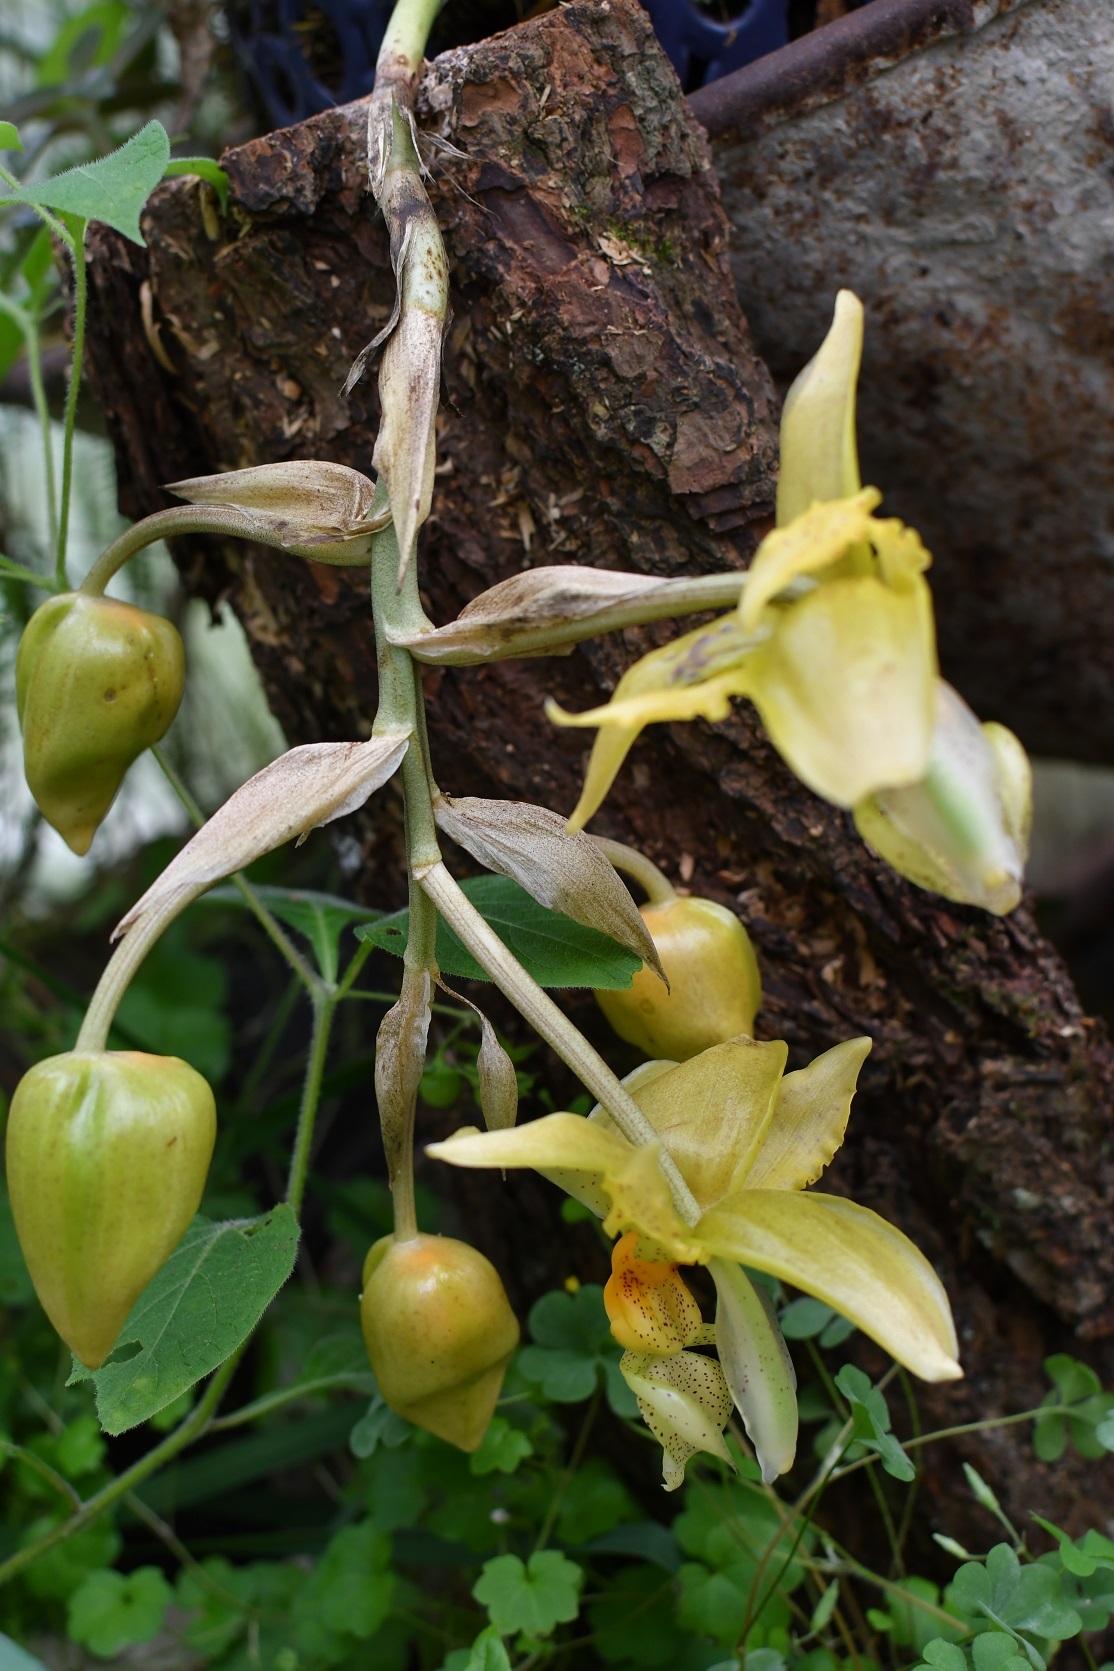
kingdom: Plantae
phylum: Tracheophyta
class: Liliopsida
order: Asparagales
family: Orchidaceae
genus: Stanhopea
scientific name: Stanhopea graveolens
